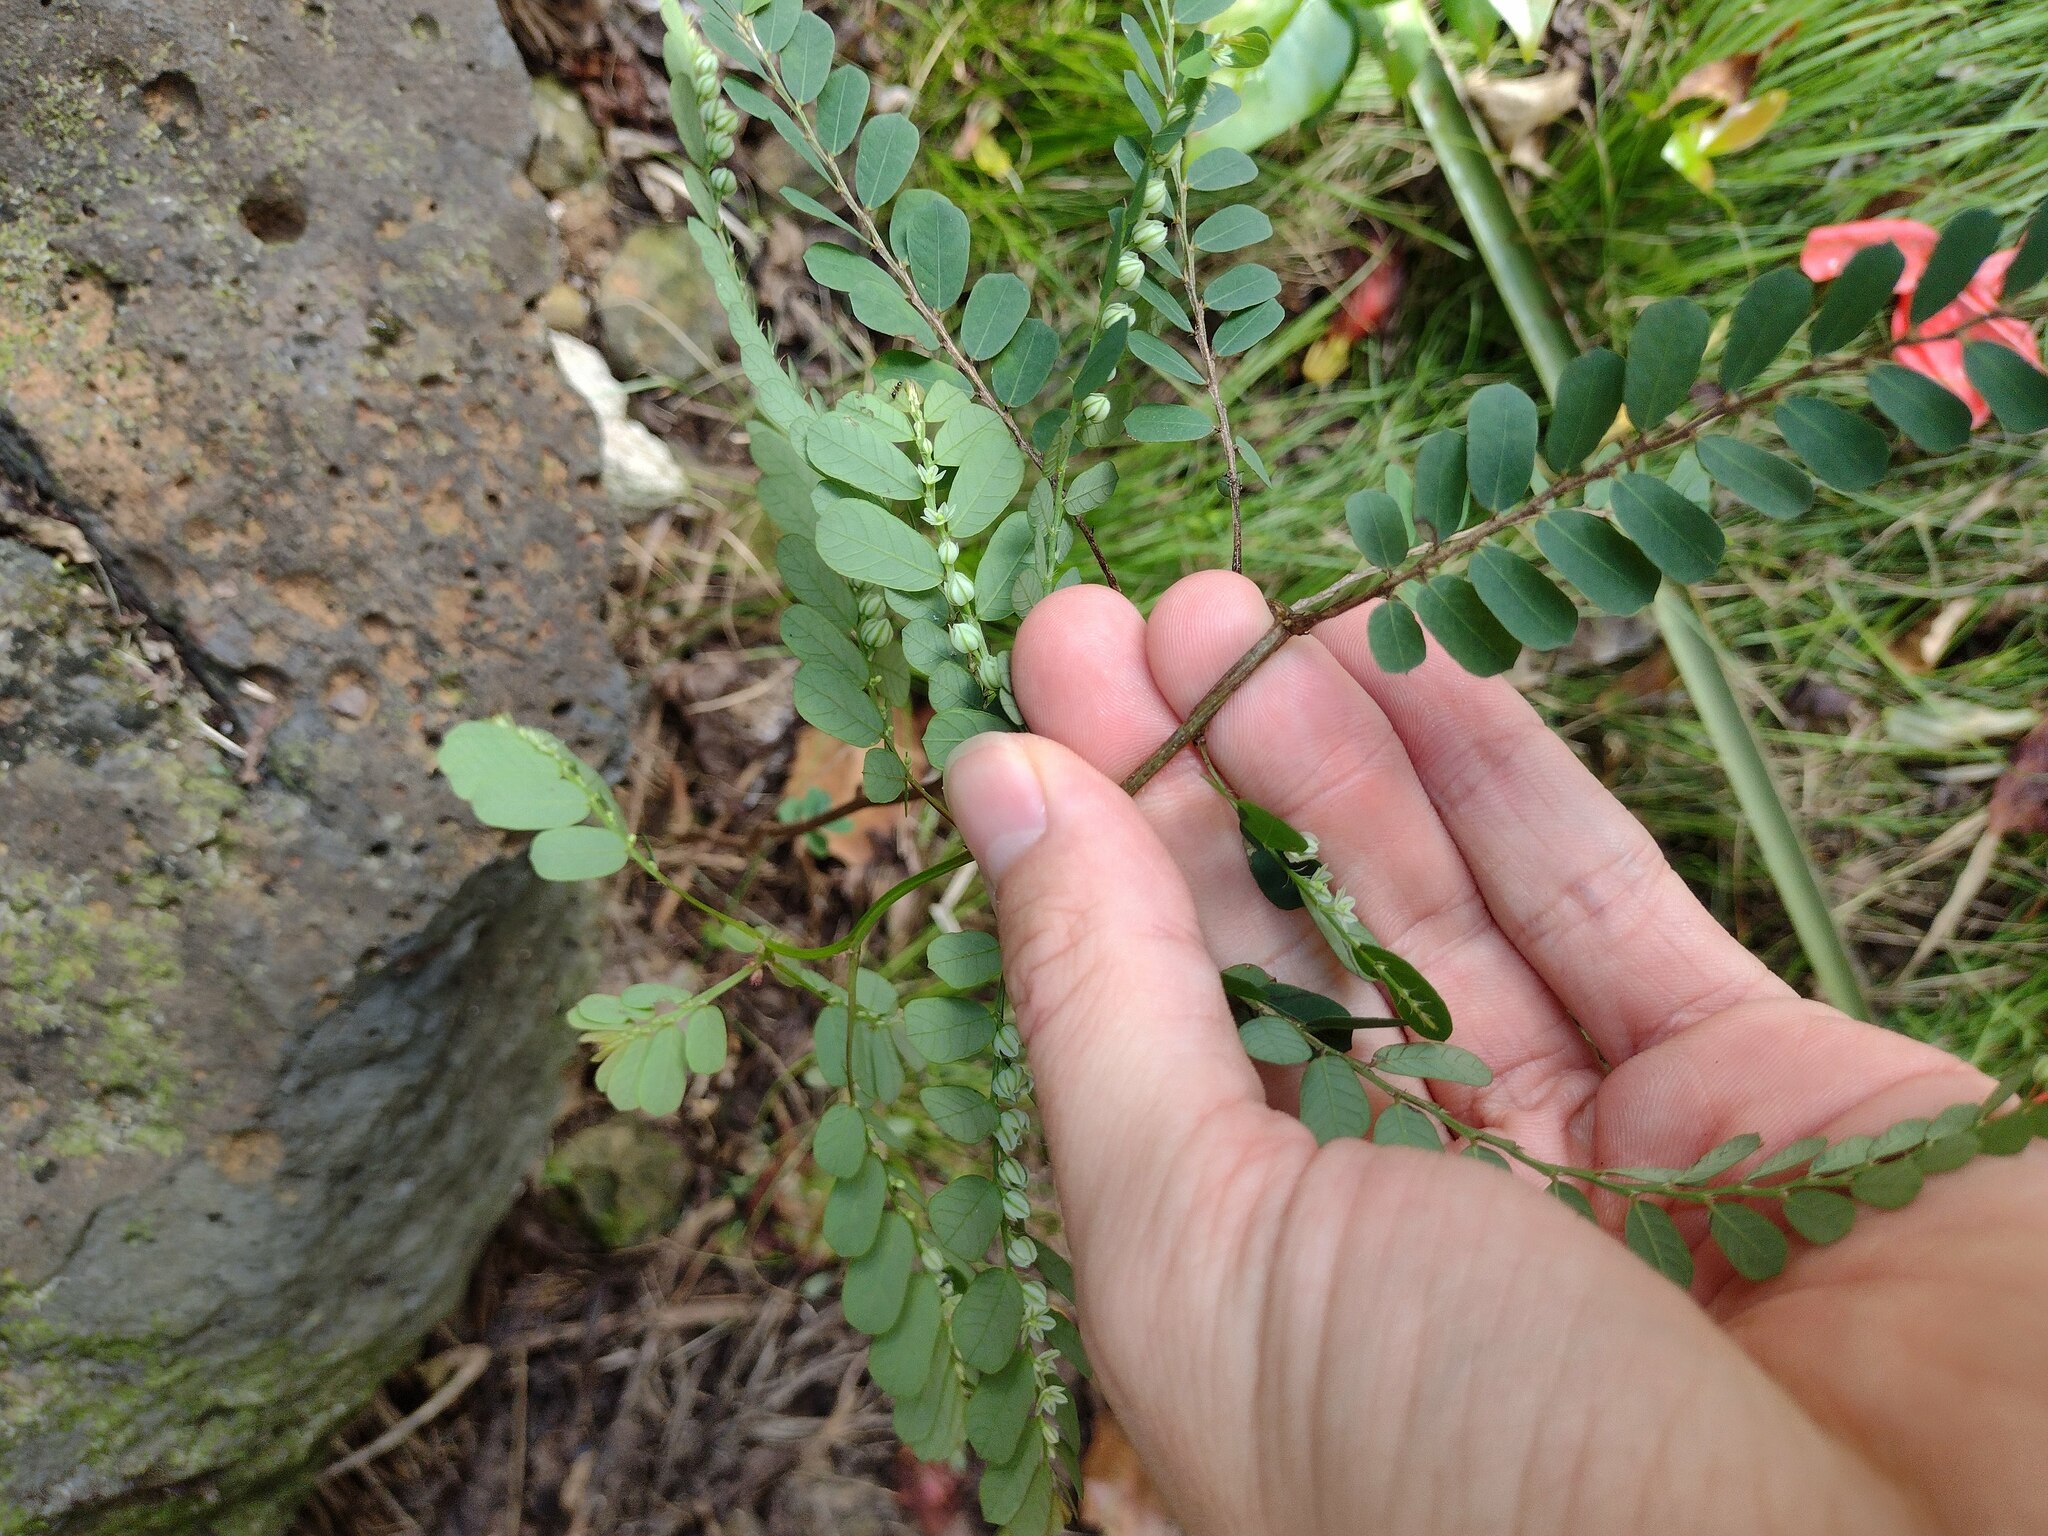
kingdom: Plantae
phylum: Tracheophyta
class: Magnoliopsida
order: Malpighiales
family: Phyllanthaceae
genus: Phyllanthus
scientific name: Phyllanthus leucanthus
